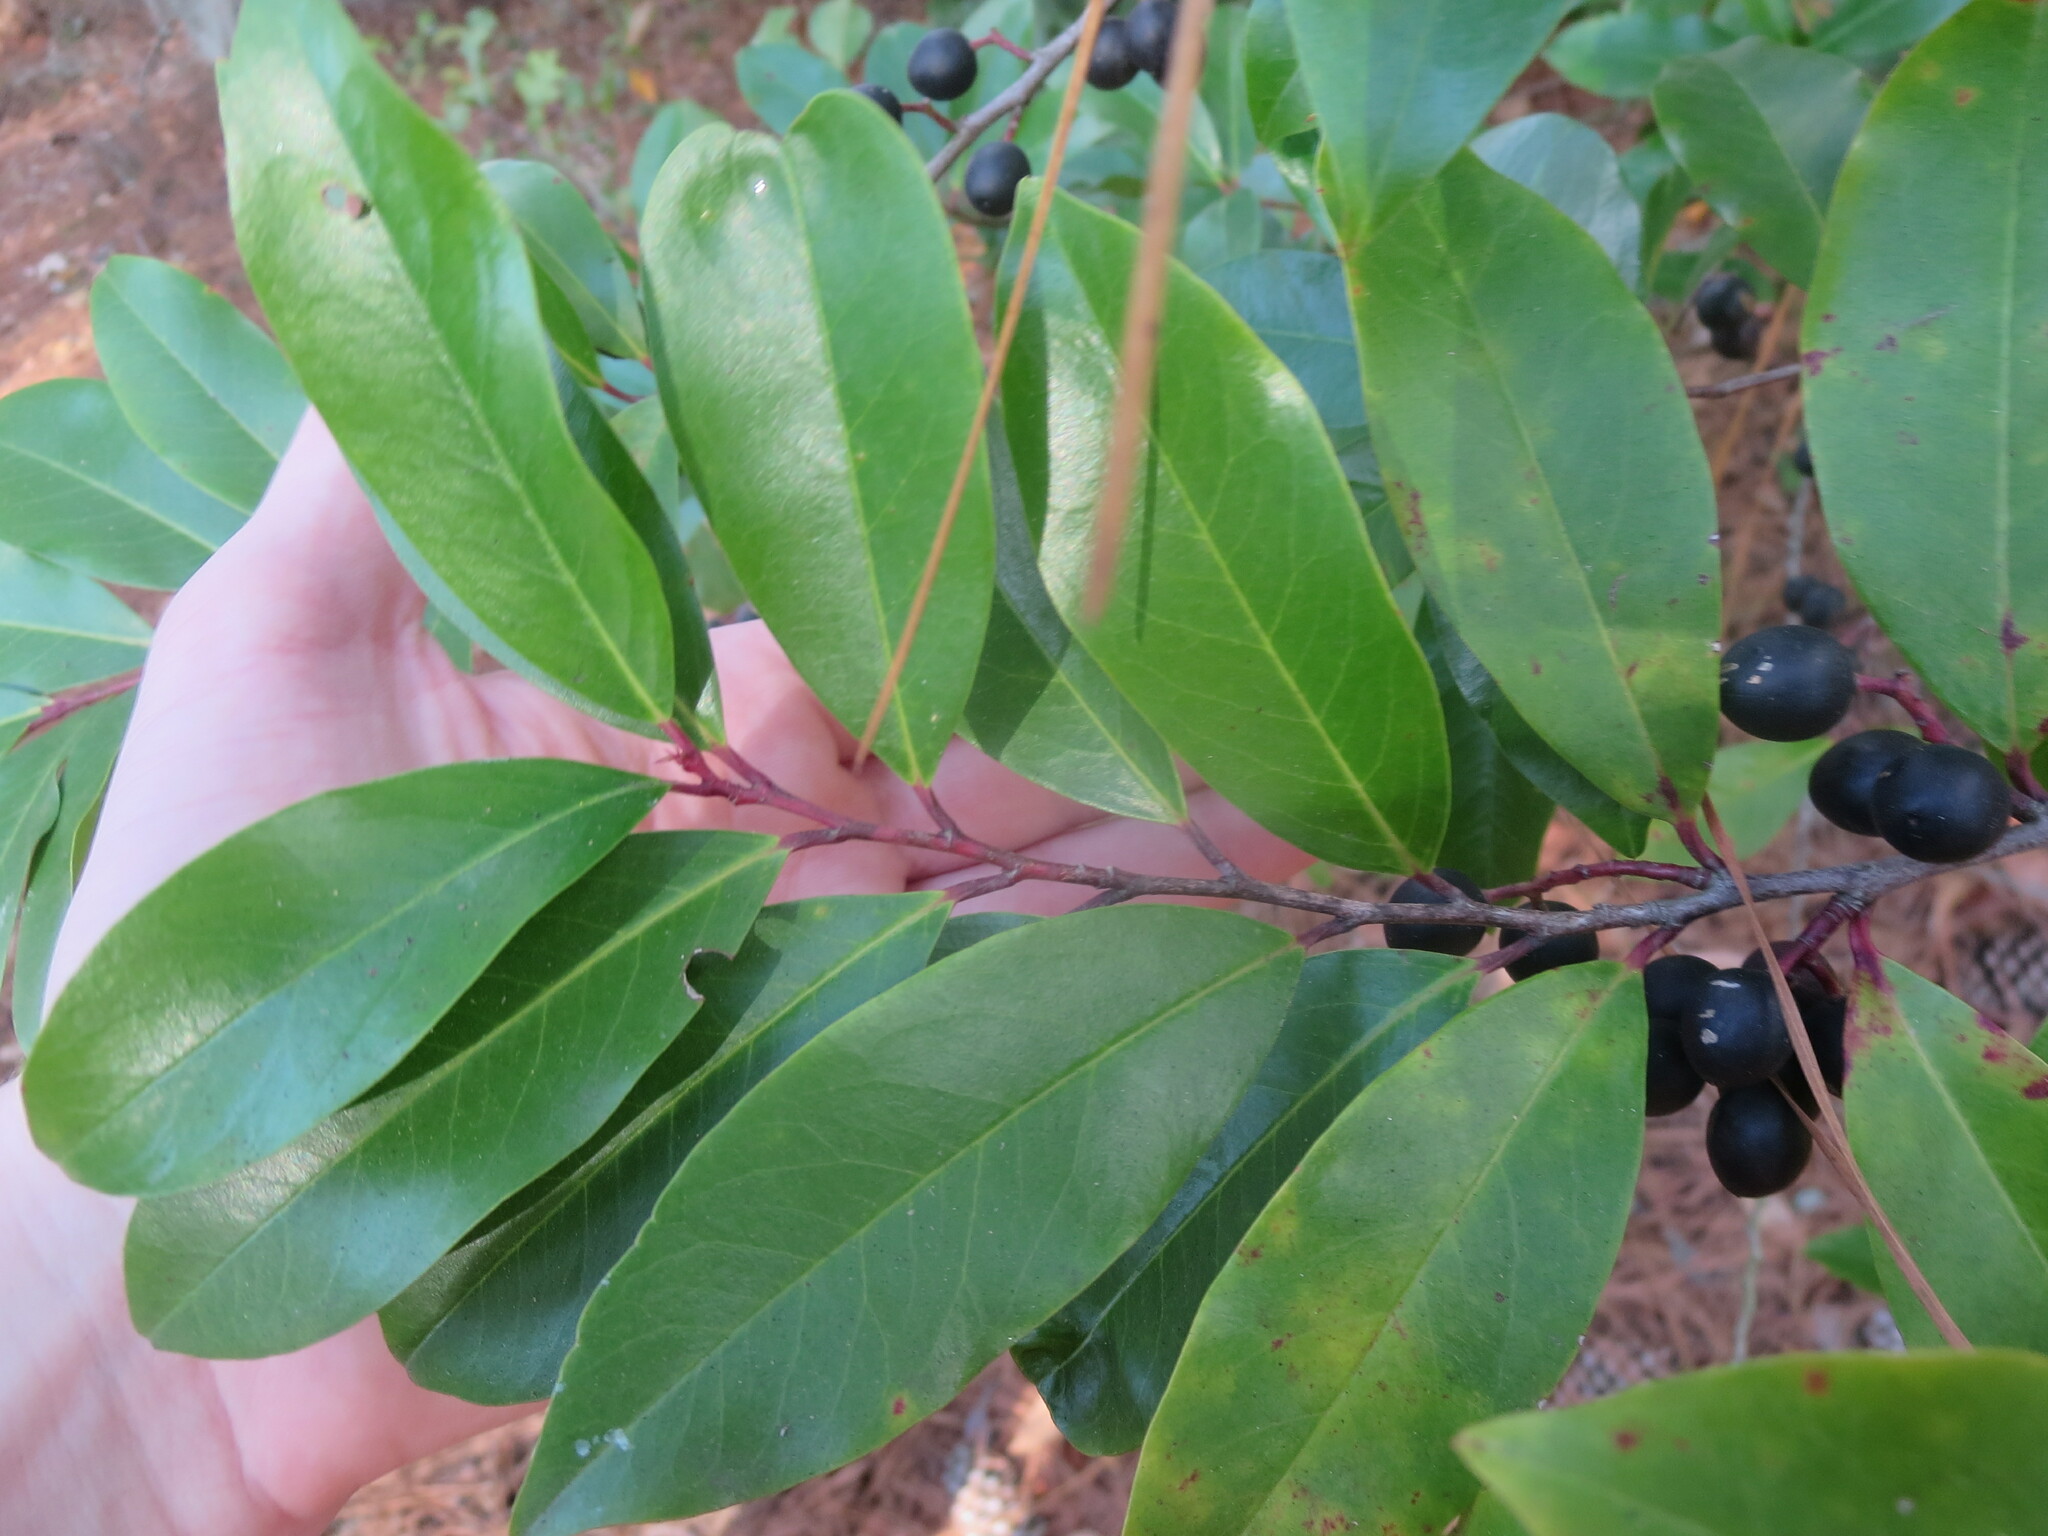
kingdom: Plantae
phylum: Tracheophyta
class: Magnoliopsida
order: Rosales
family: Rosaceae
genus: Prunus
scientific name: Prunus caroliniana
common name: Carolina laurel cherry
